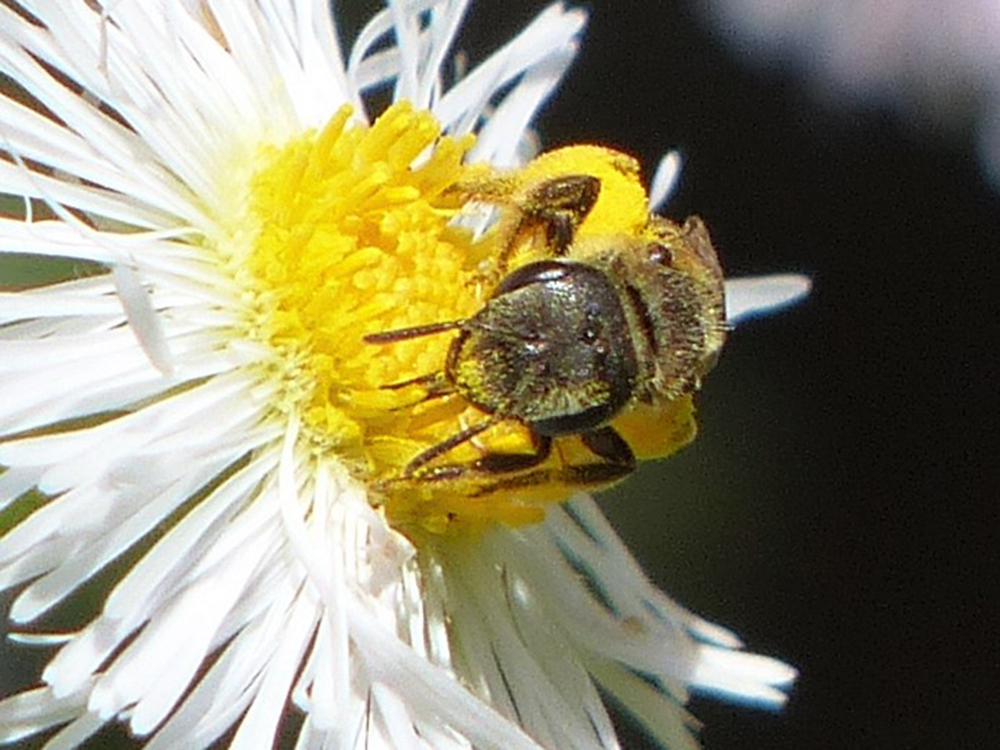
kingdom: Animalia
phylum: Arthropoda
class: Insecta
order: Hymenoptera
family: Halictidae
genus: Halictus
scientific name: Halictus ligatus
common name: Ligated furrow bee
